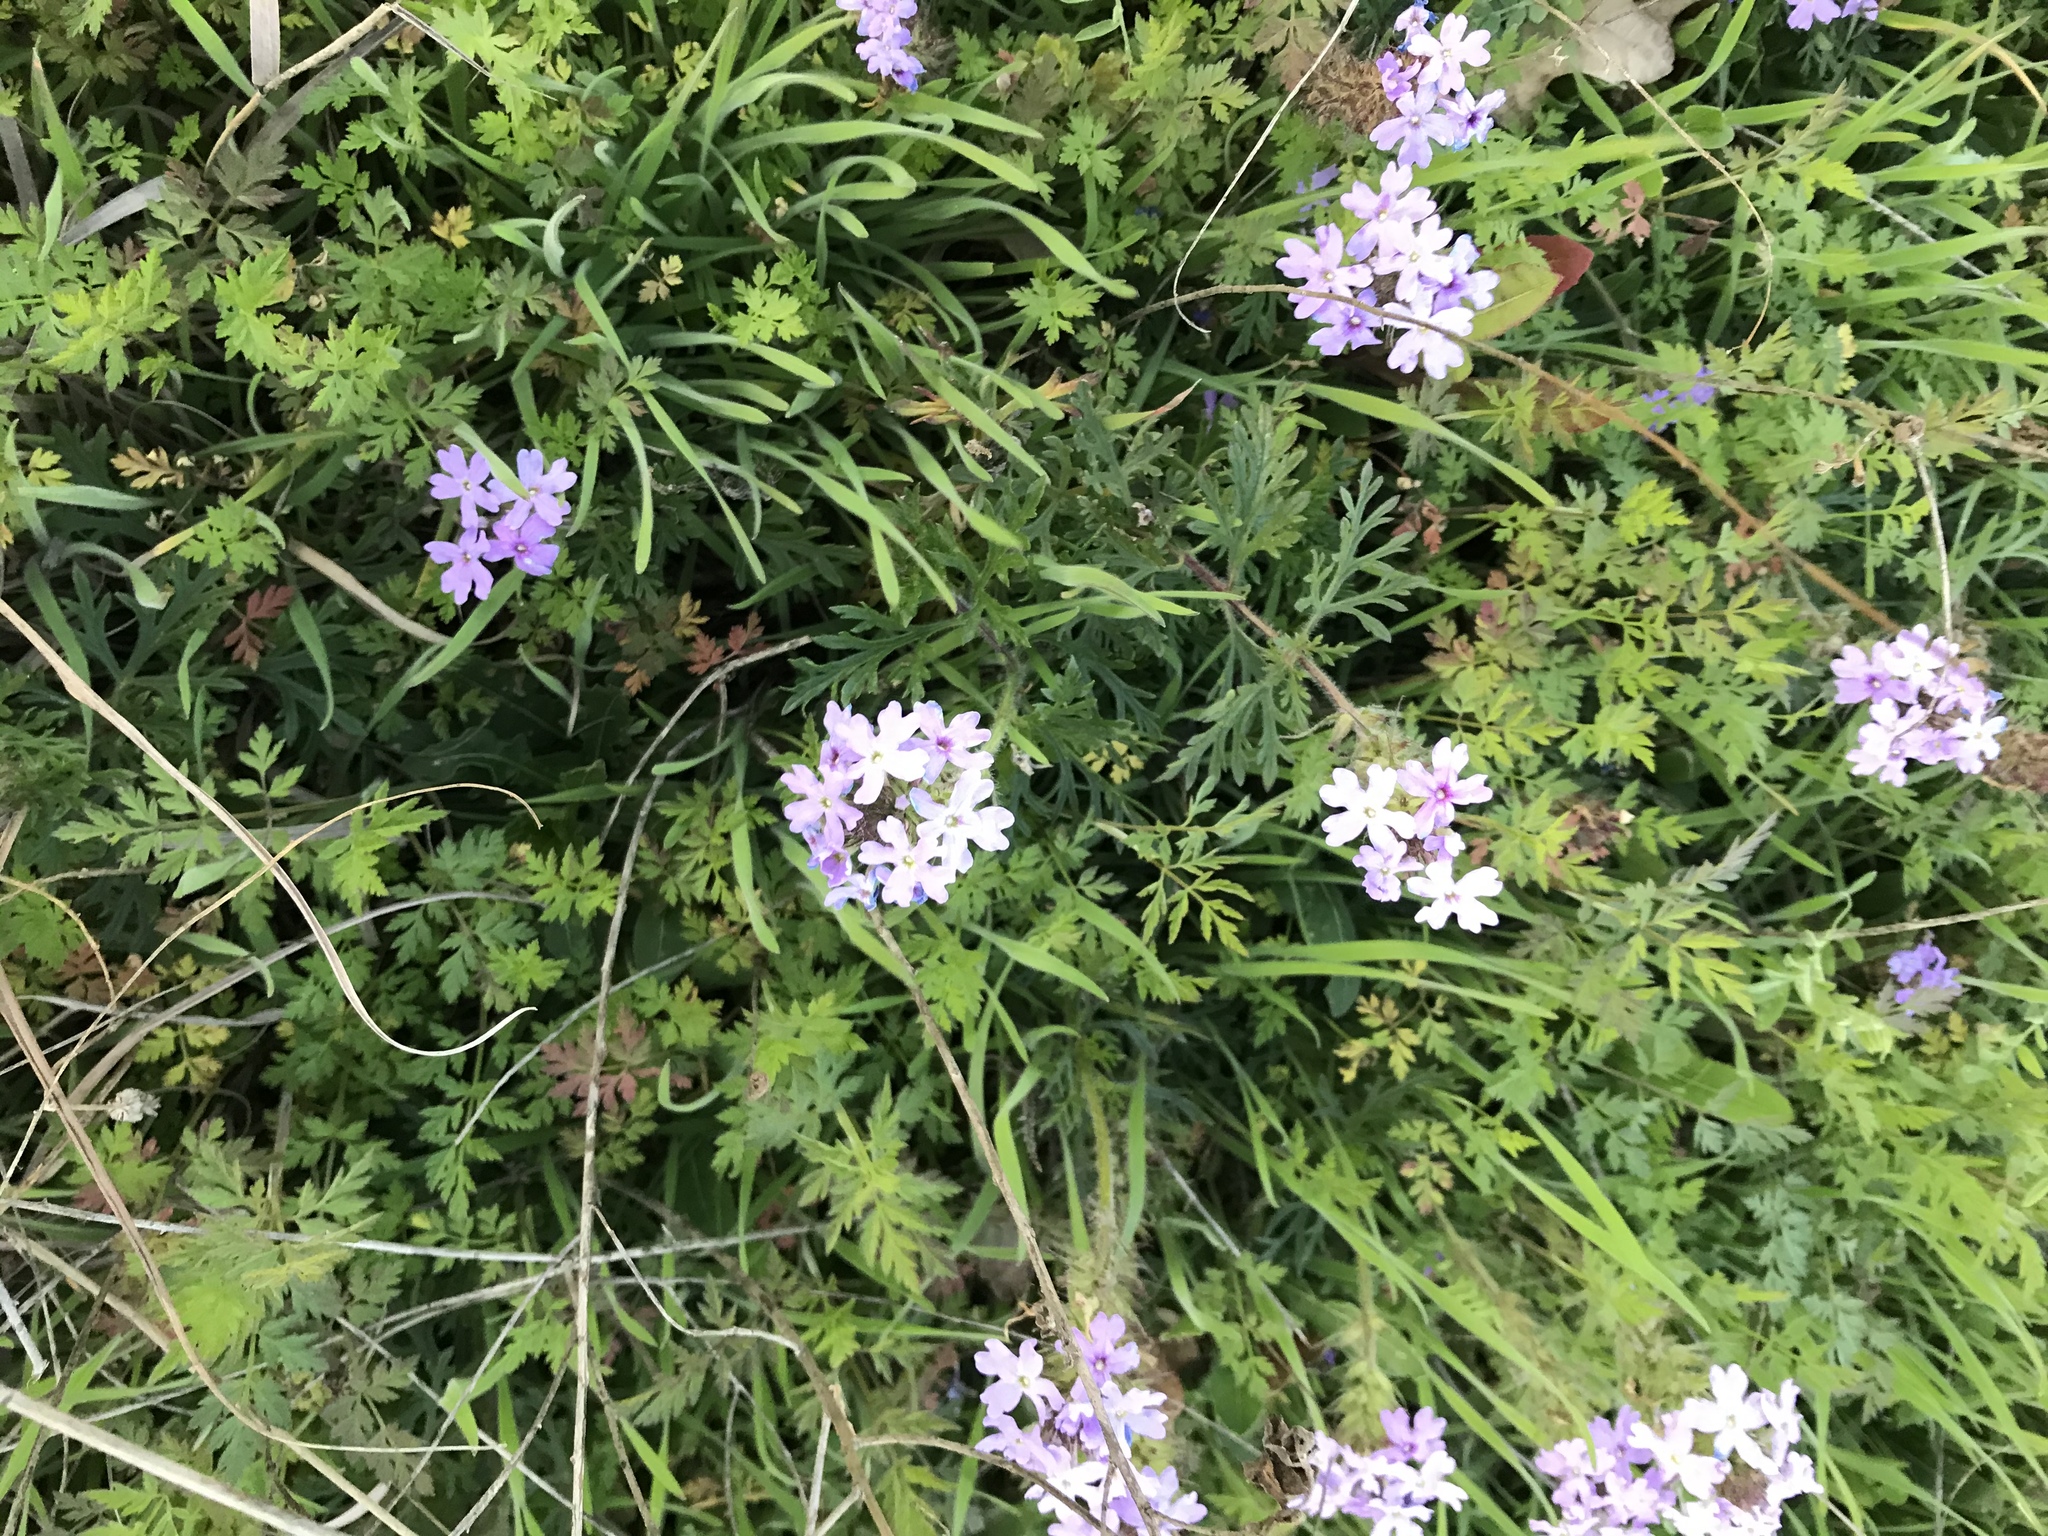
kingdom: Plantae
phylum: Tracheophyta
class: Magnoliopsida
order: Lamiales
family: Verbenaceae
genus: Verbena
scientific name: Verbena bipinnatifida
